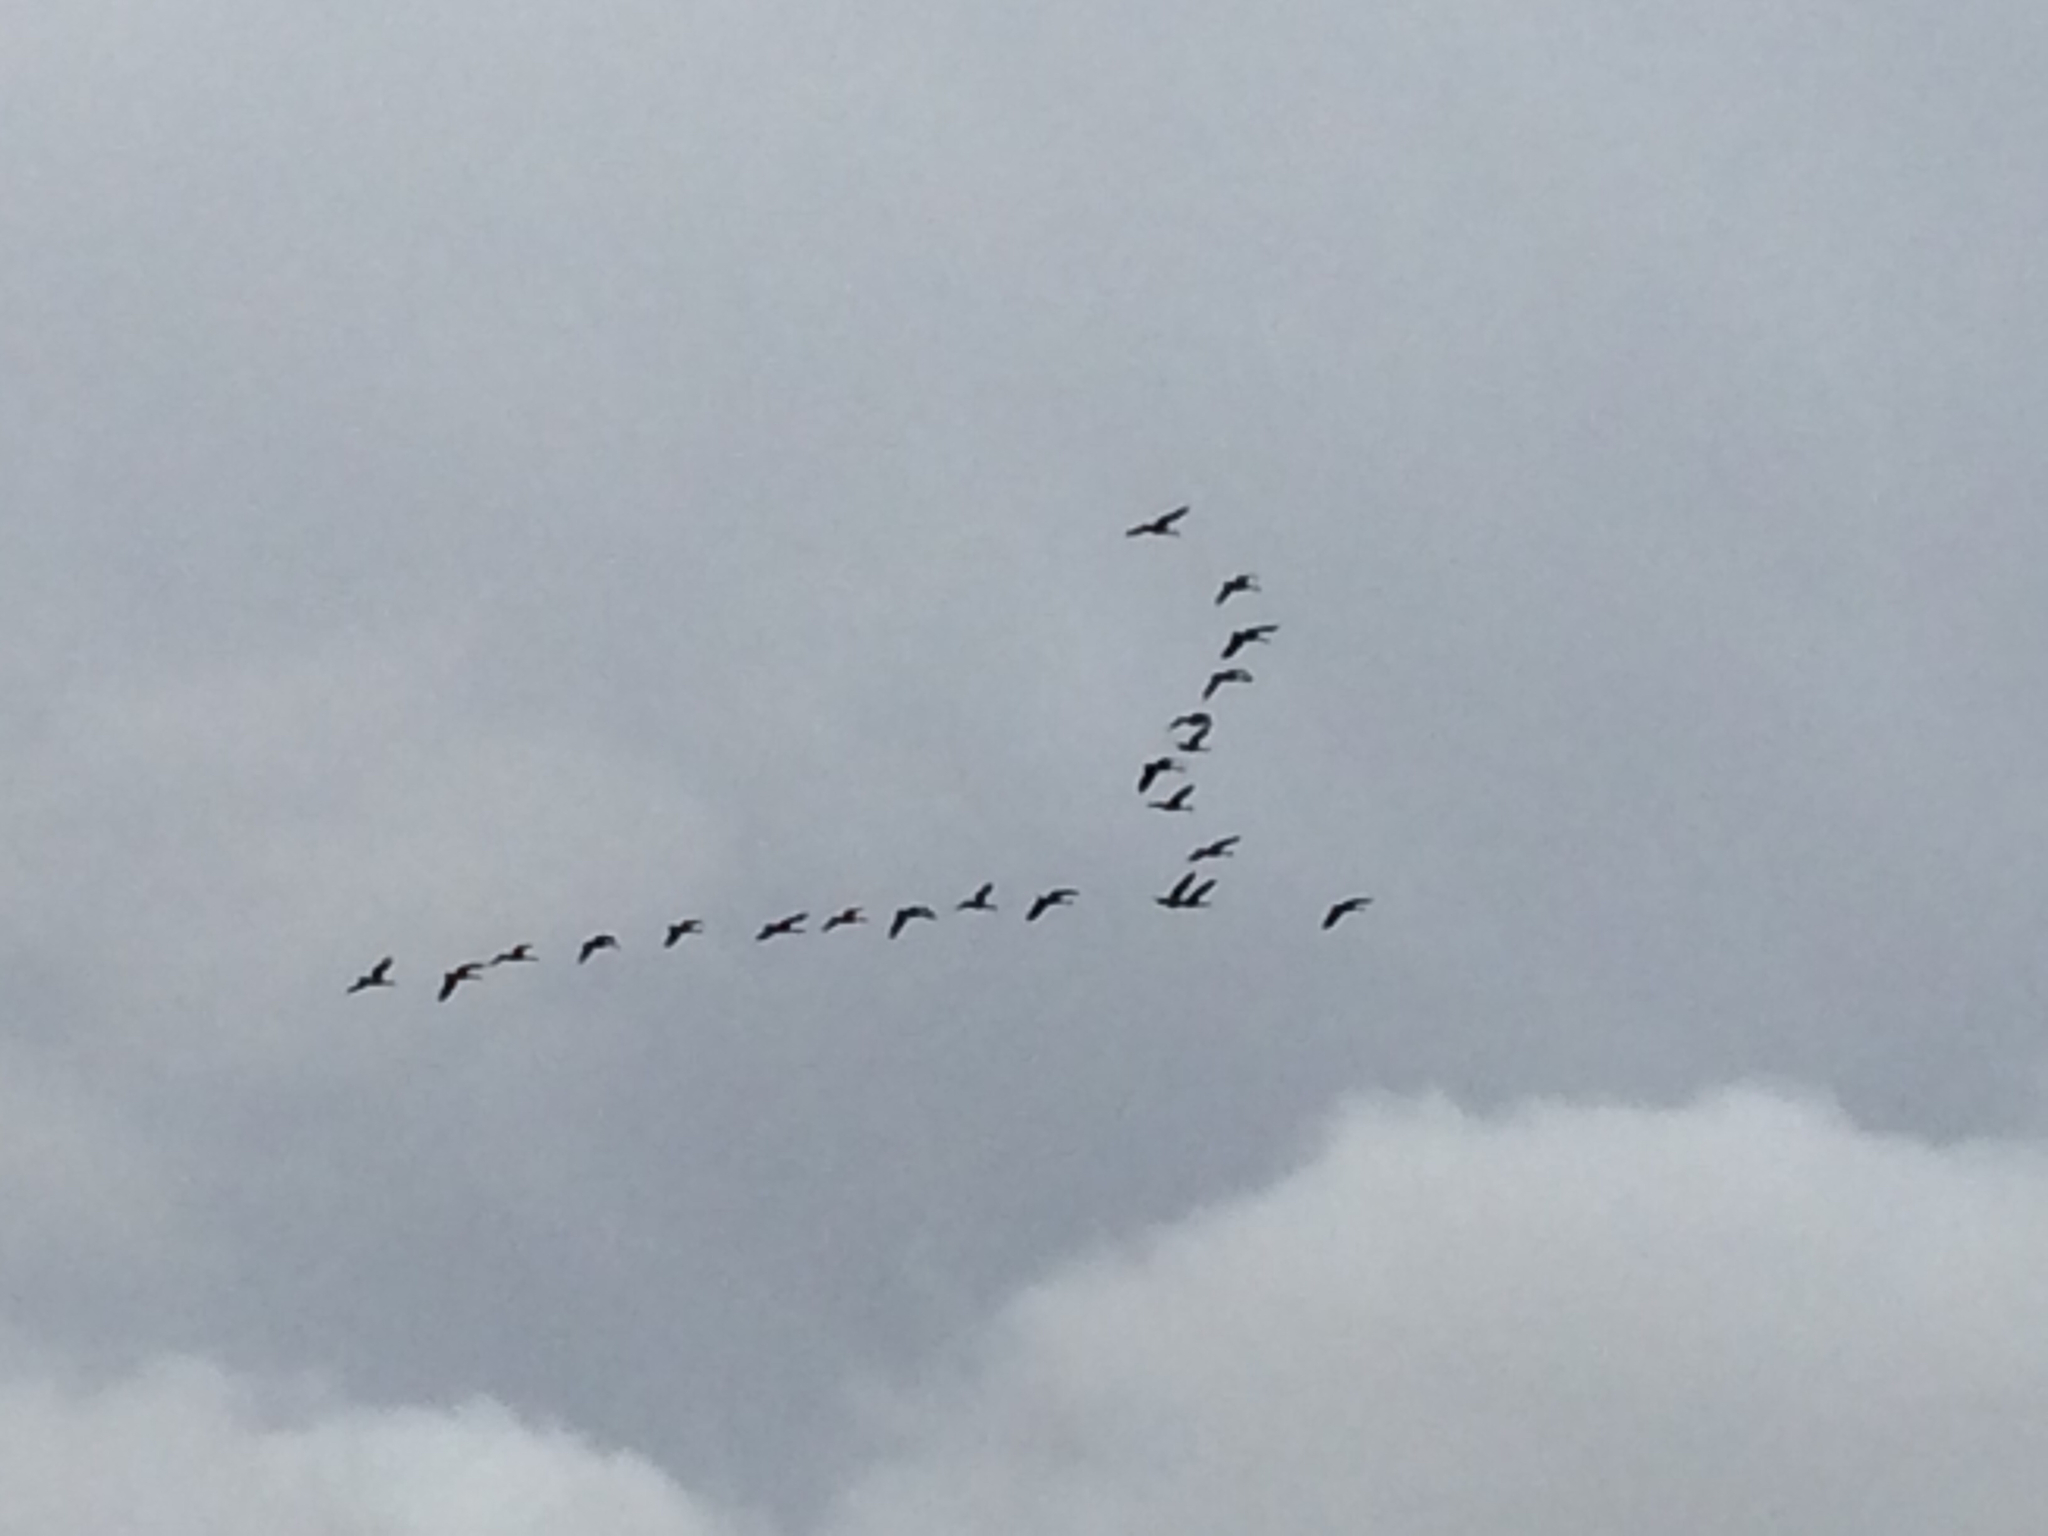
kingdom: Animalia
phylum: Chordata
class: Aves
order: Anseriformes
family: Anatidae
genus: Branta
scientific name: Branta canadensis
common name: Canada goose
